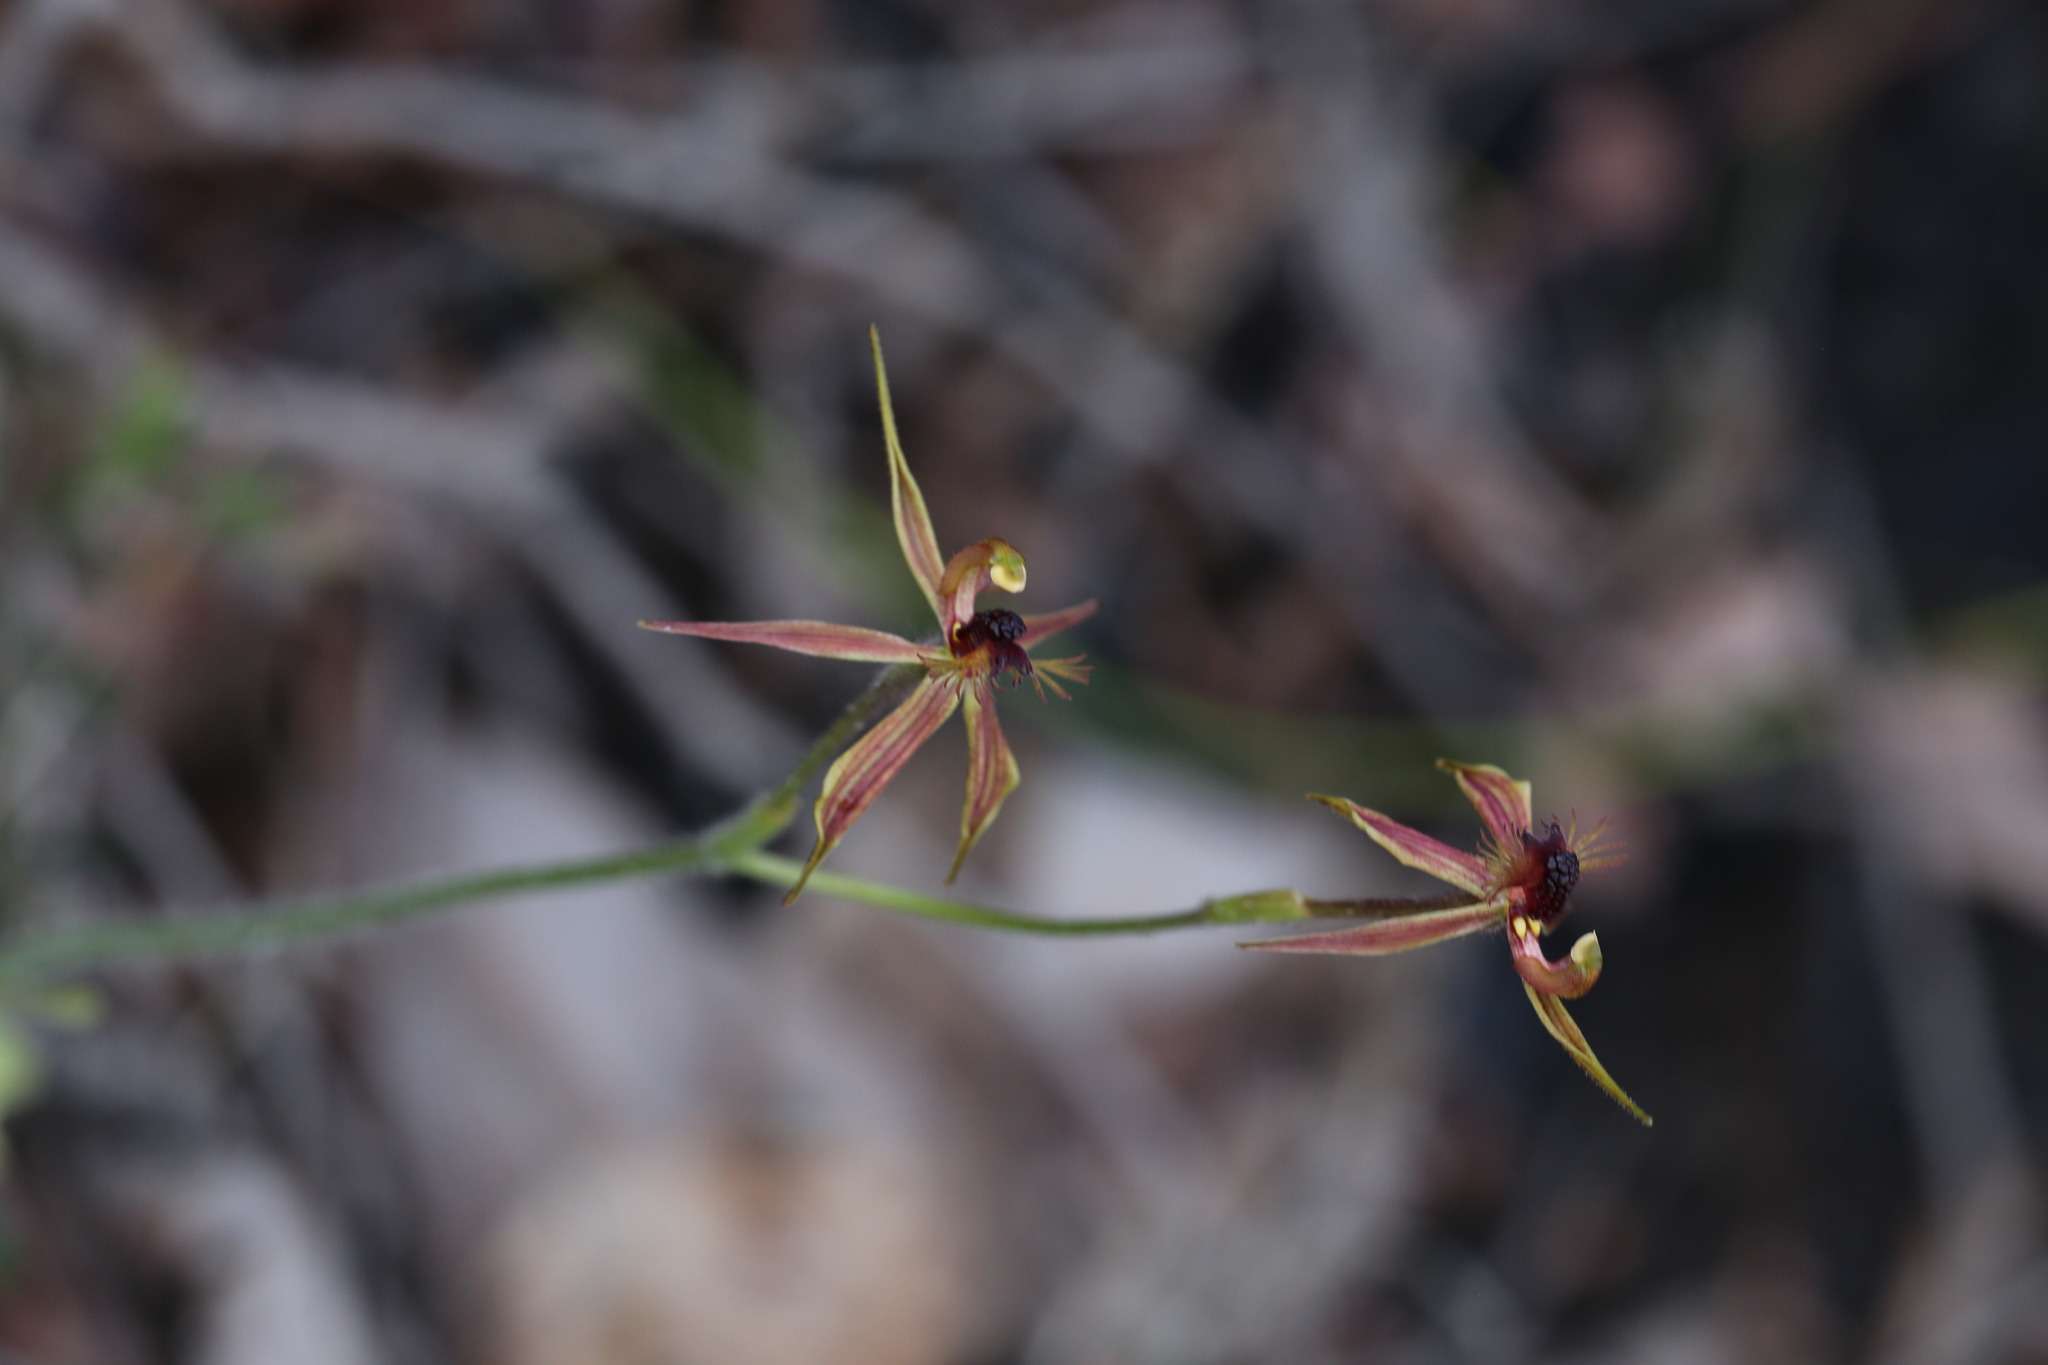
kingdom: Plantae
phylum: Tracheophyta
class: Liliopsida
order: Asparagales
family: Orchidaceae
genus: Caladenia
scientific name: Caladenia plicata
